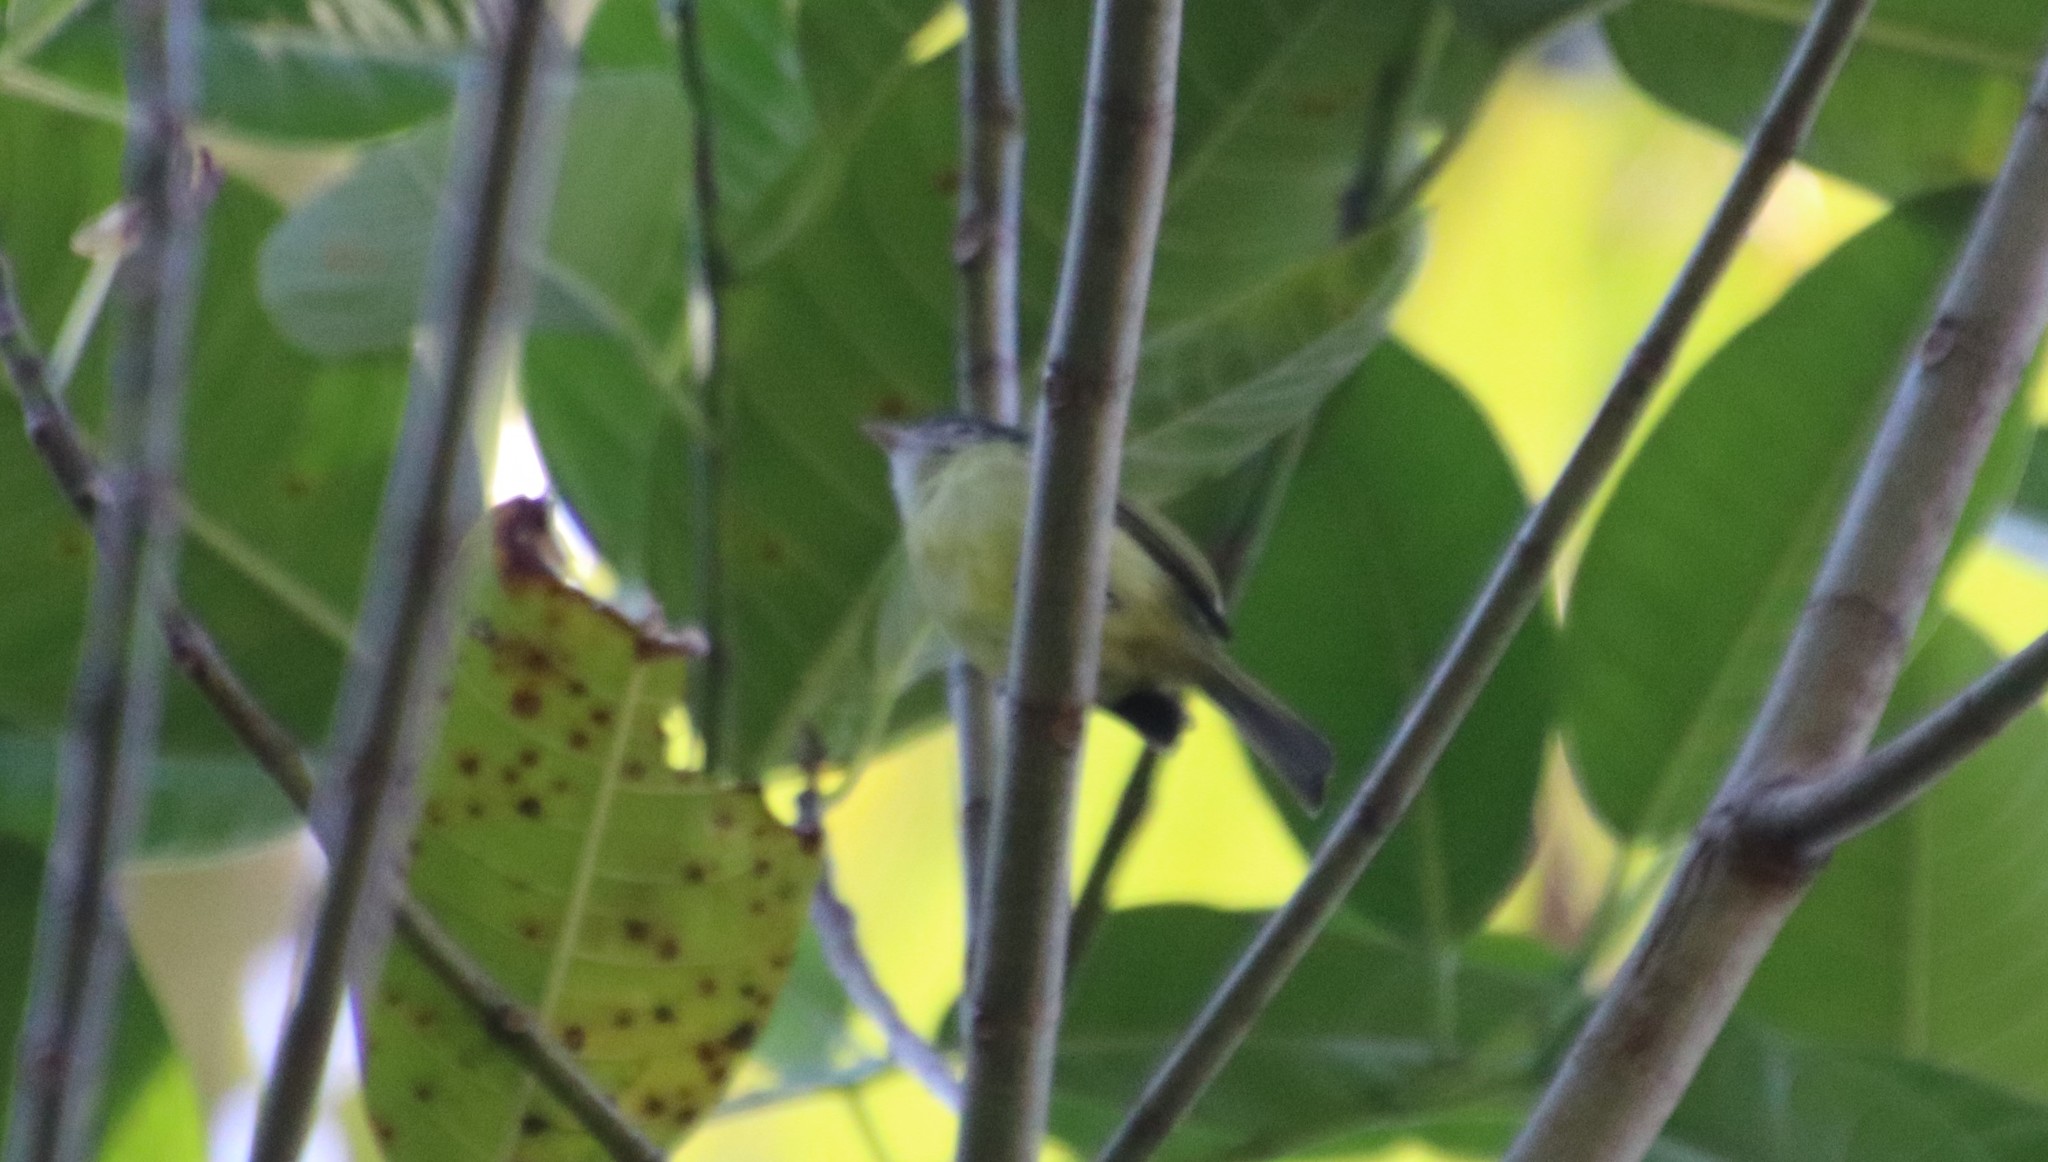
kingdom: Animalia
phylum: Chordata
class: Aves
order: Passeriformes
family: Tyrannidae
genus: Tolmomyias
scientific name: Tolmomyias sulphurescens
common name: Yellow-olive flycatcher
